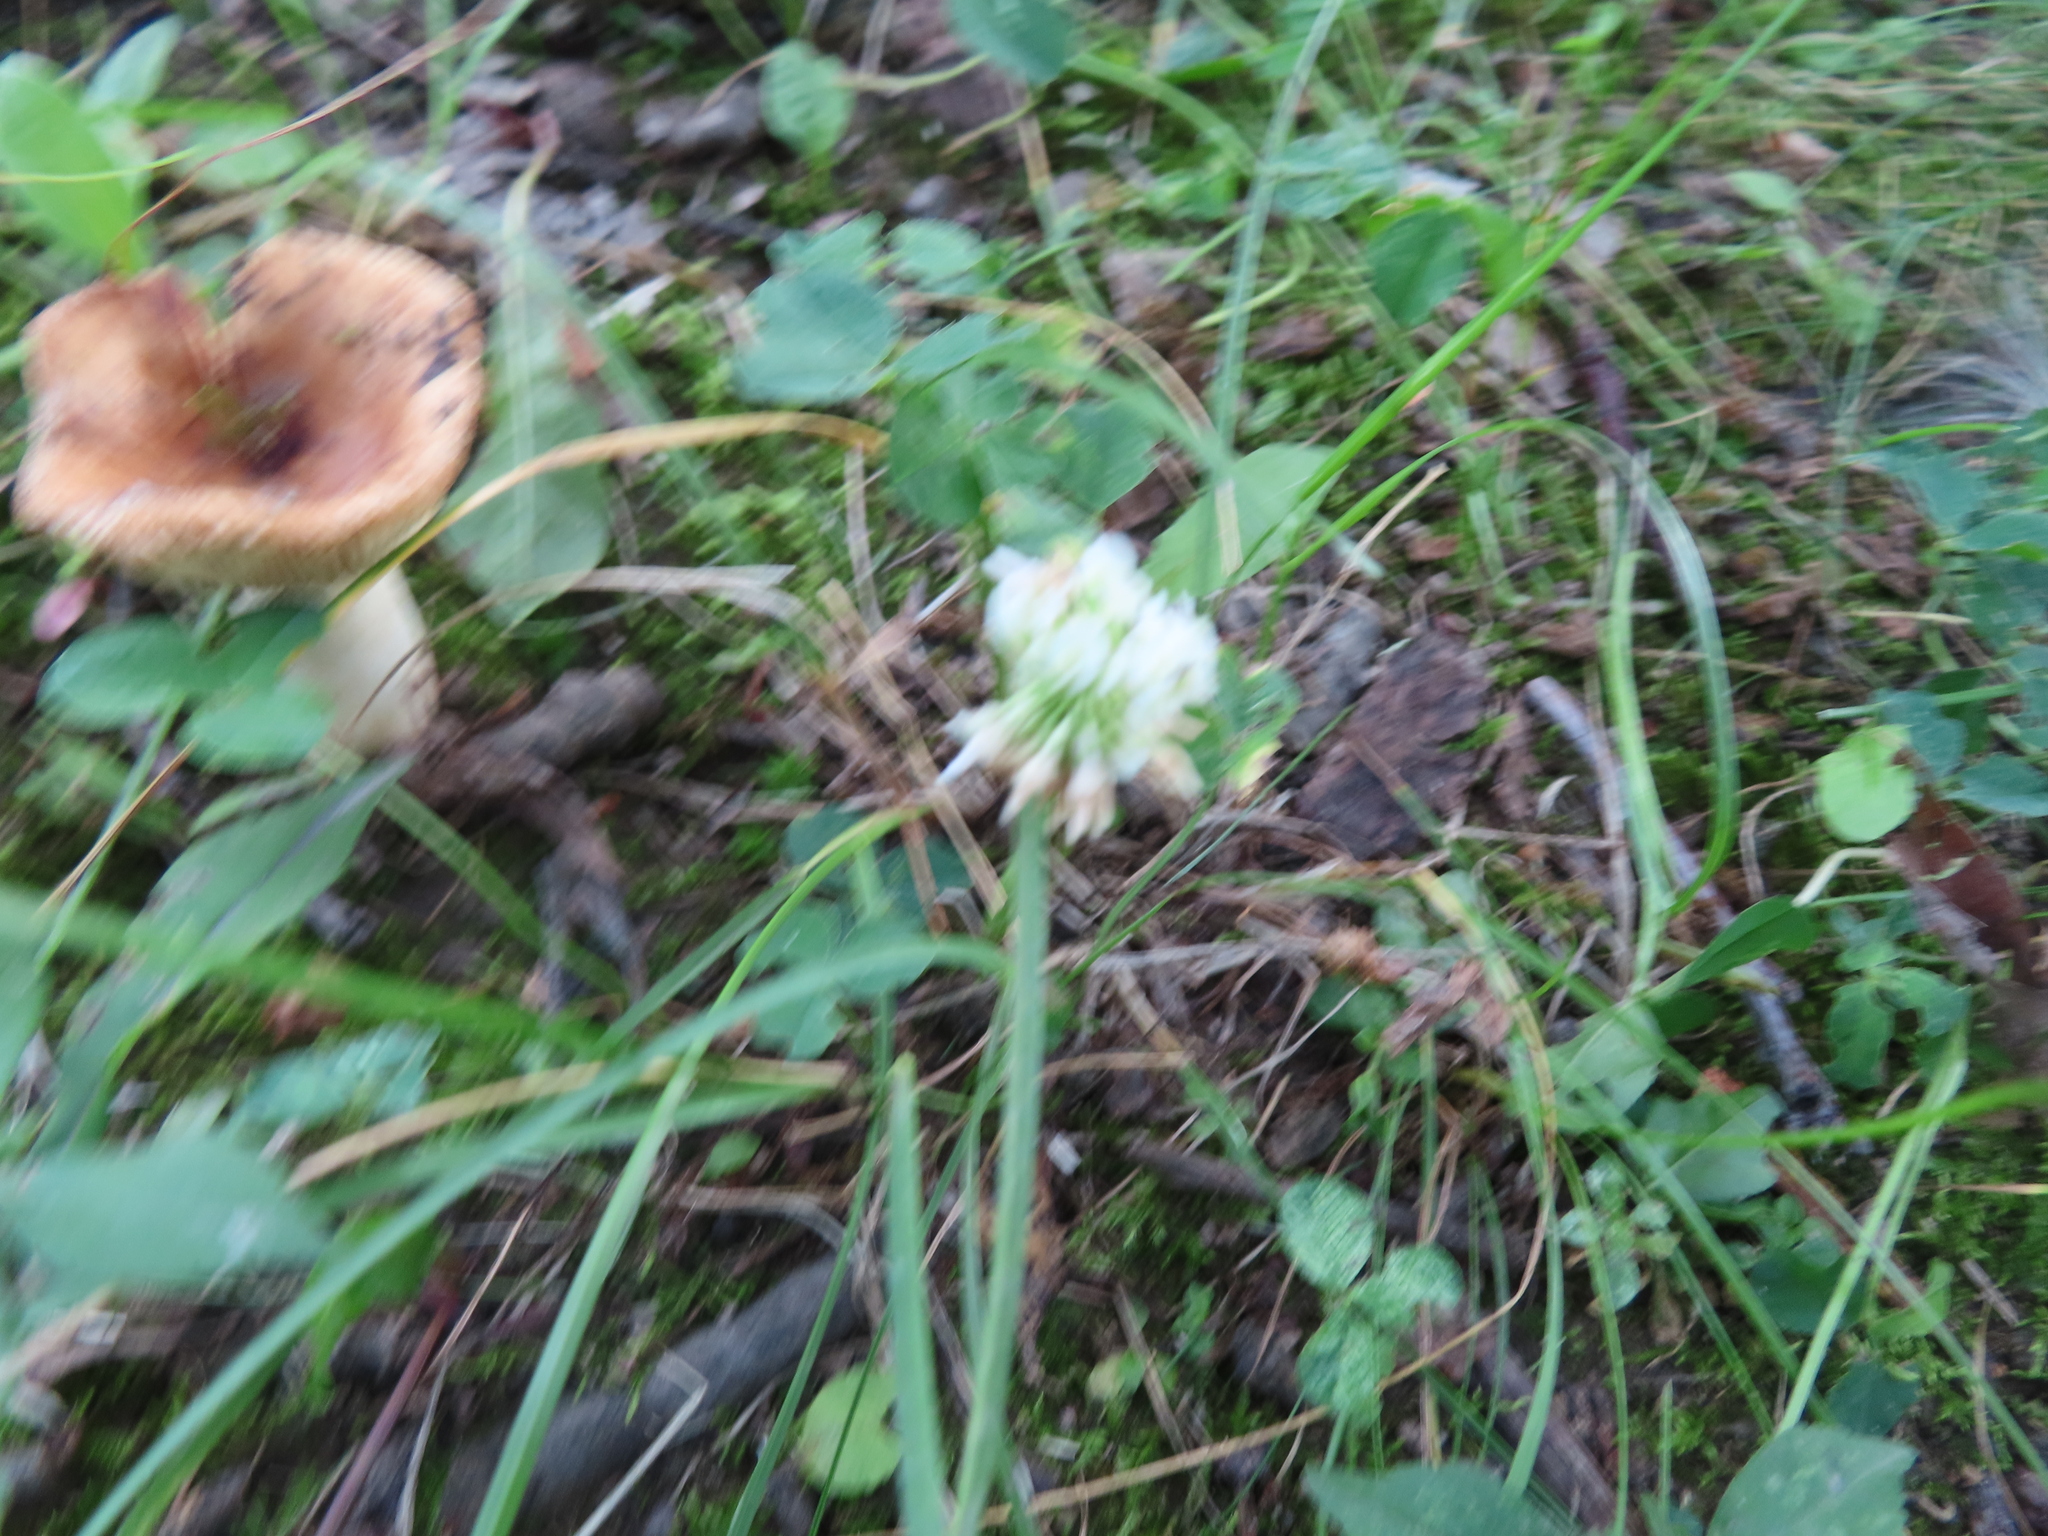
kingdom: Plantae
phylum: Tracheophyta
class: Magnoliopsida
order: Fabales
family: Fabaceae
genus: Trifolium
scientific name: Trifolium repens
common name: White clover
